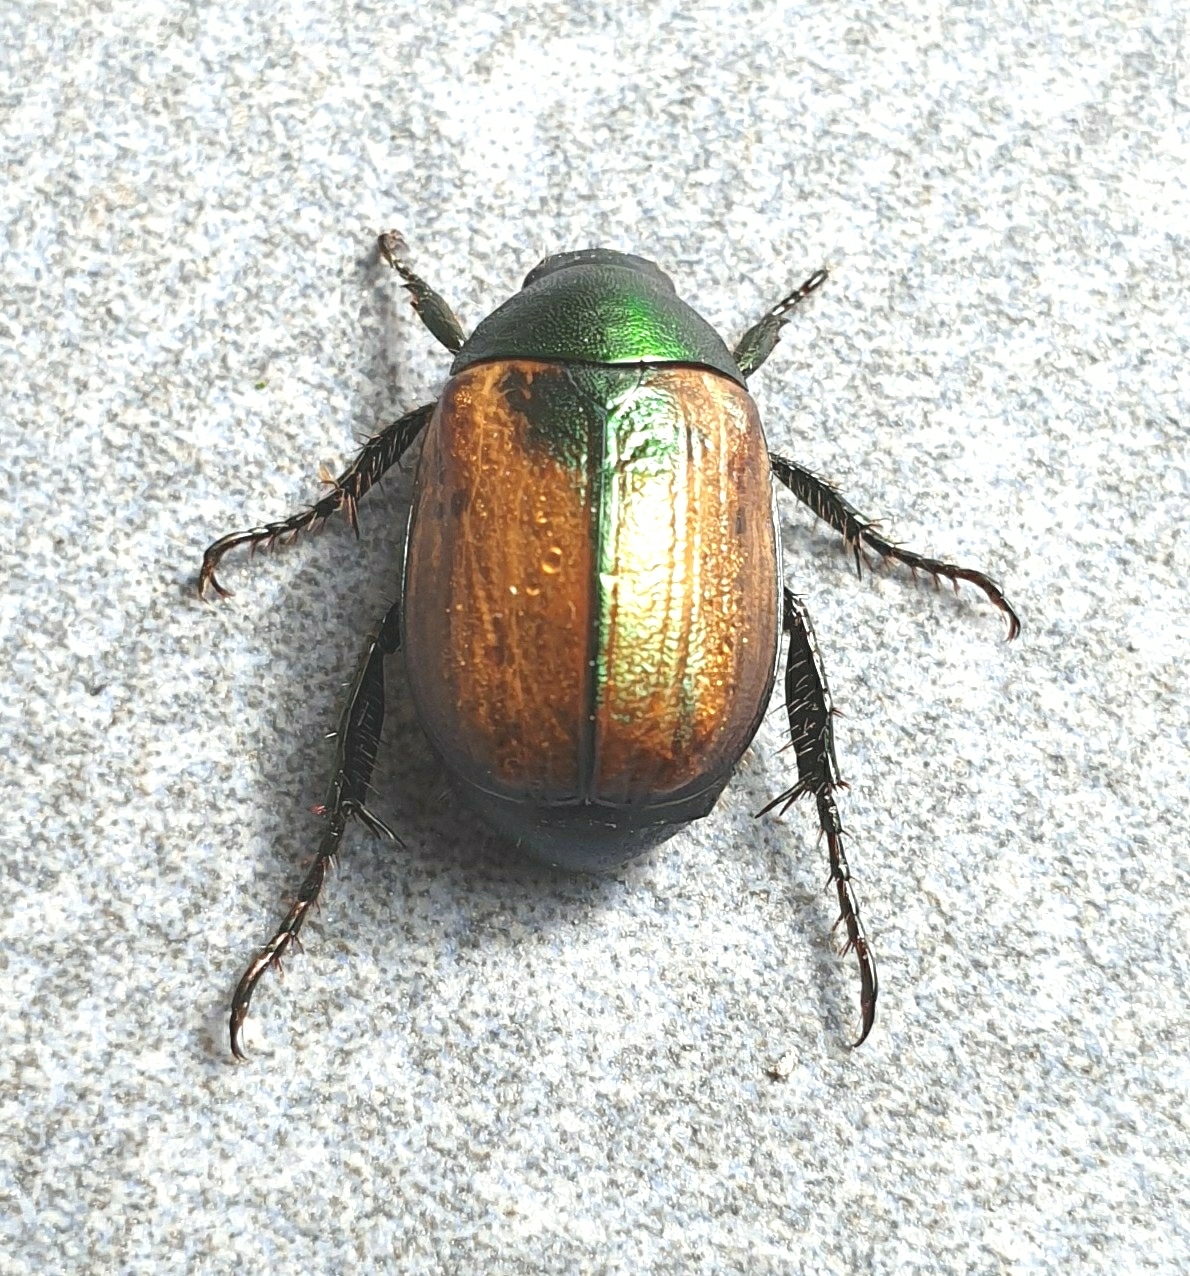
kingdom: Animalia
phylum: Arthropoda
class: Insecta
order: Coleoptera
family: Scarabaeidae
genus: Anomala
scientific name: Anomala dubia
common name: Dune chafer
